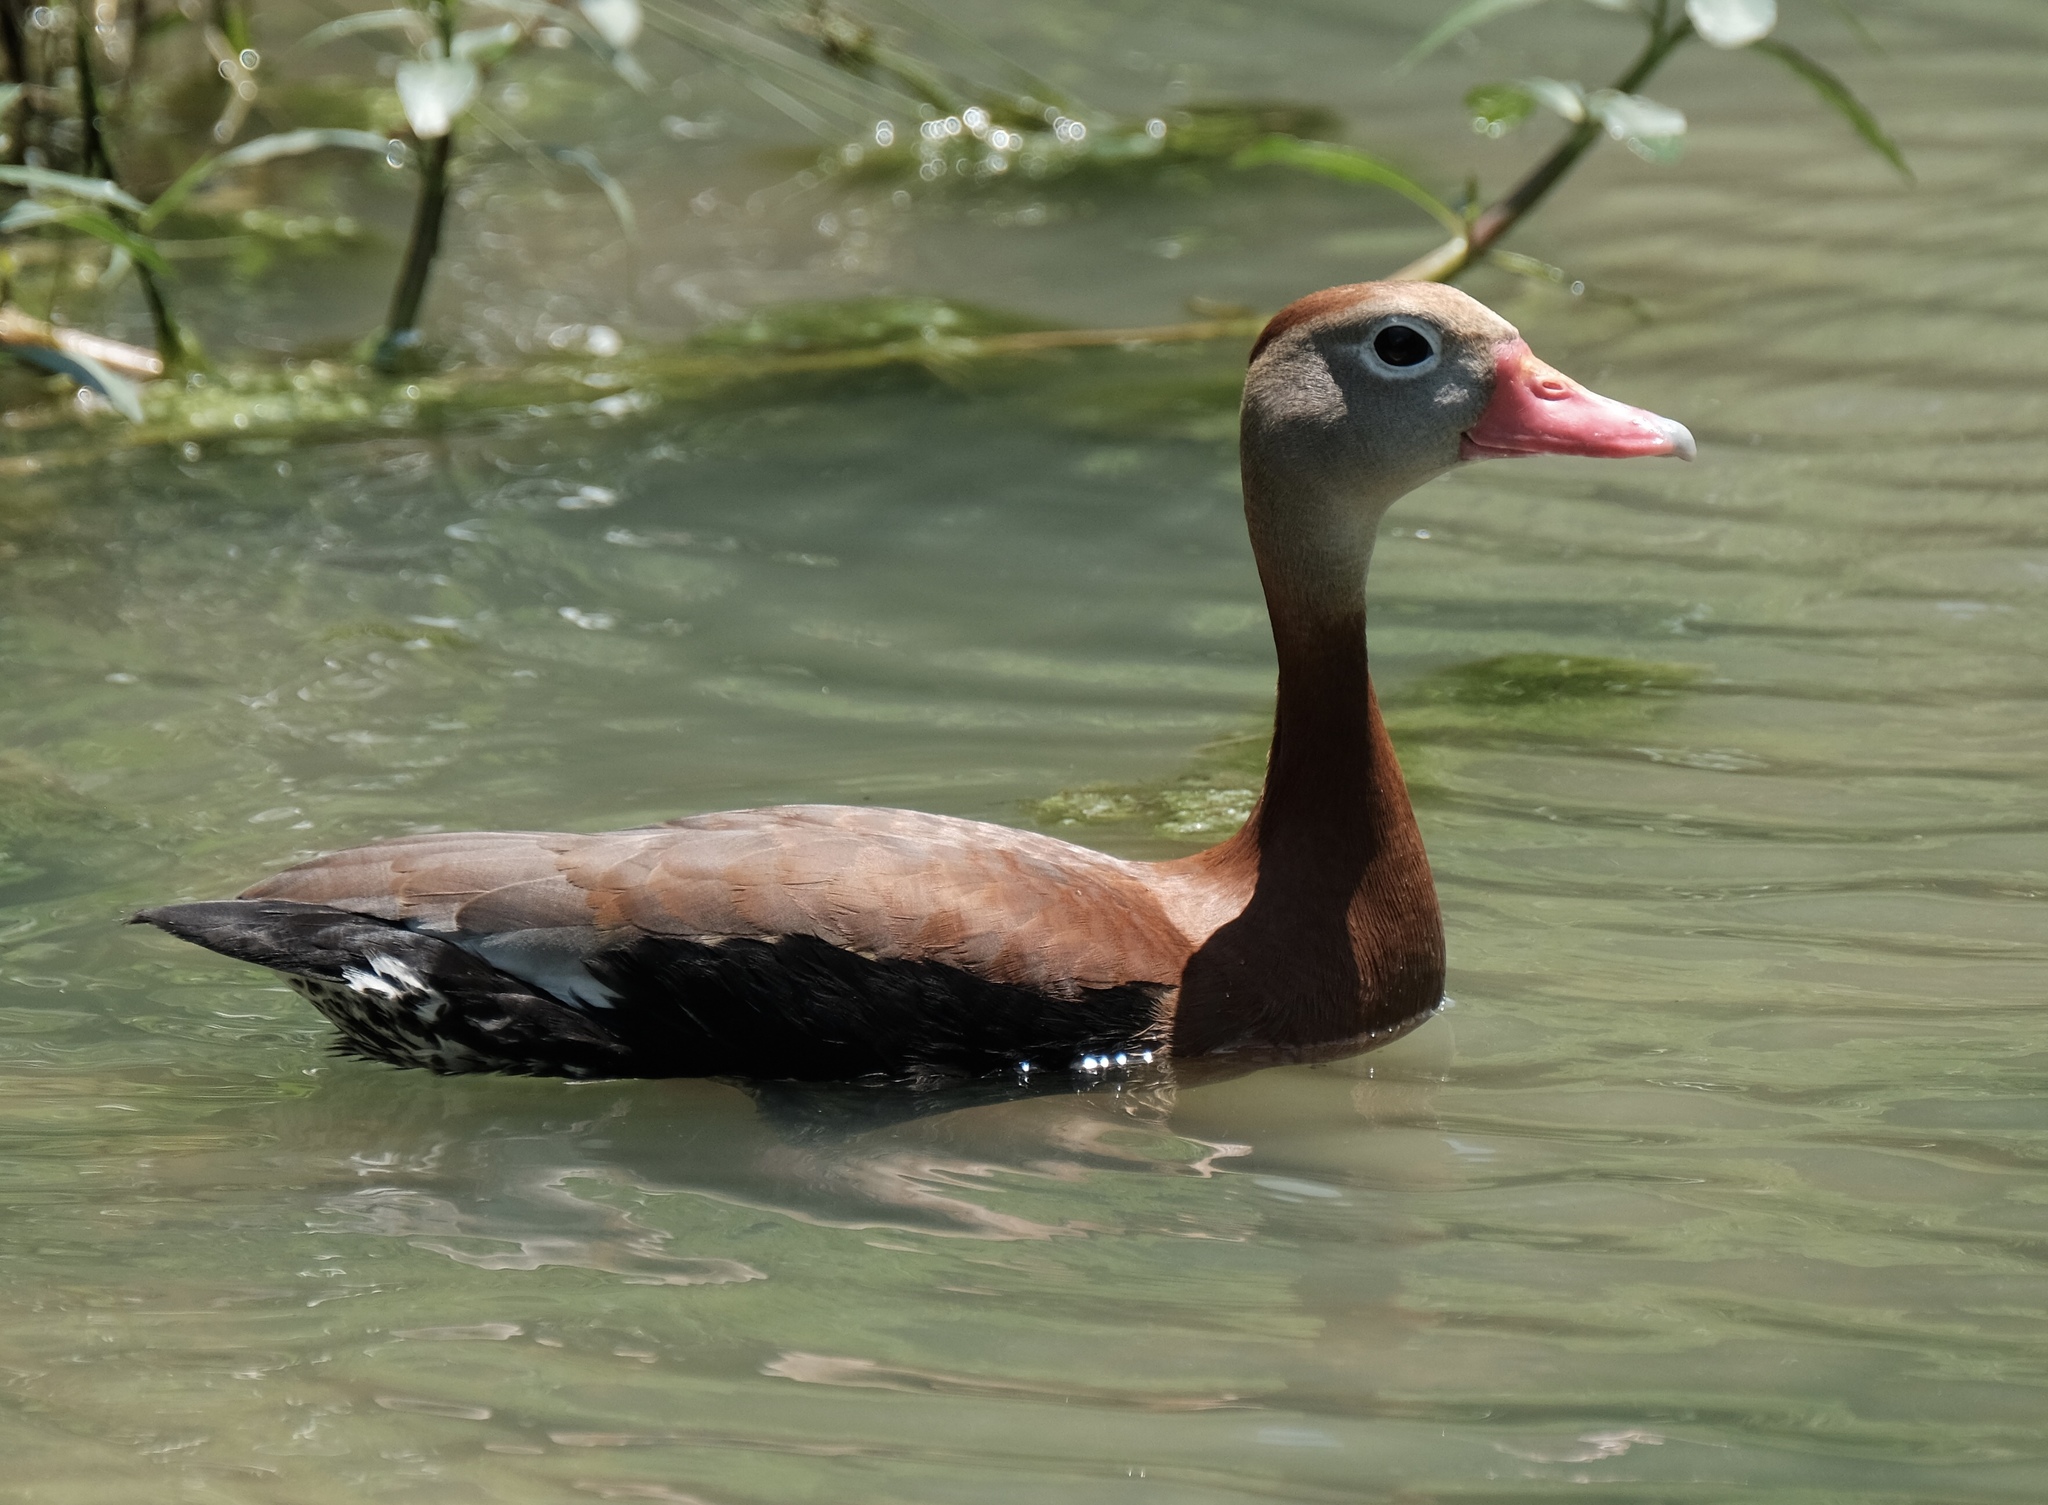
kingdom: Animalia
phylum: Chordata
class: Aves
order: Anseriformes
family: Anatidae
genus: Dendrocygna
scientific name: Dendrocygna autumnalis
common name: Black-bellied whistling duck
